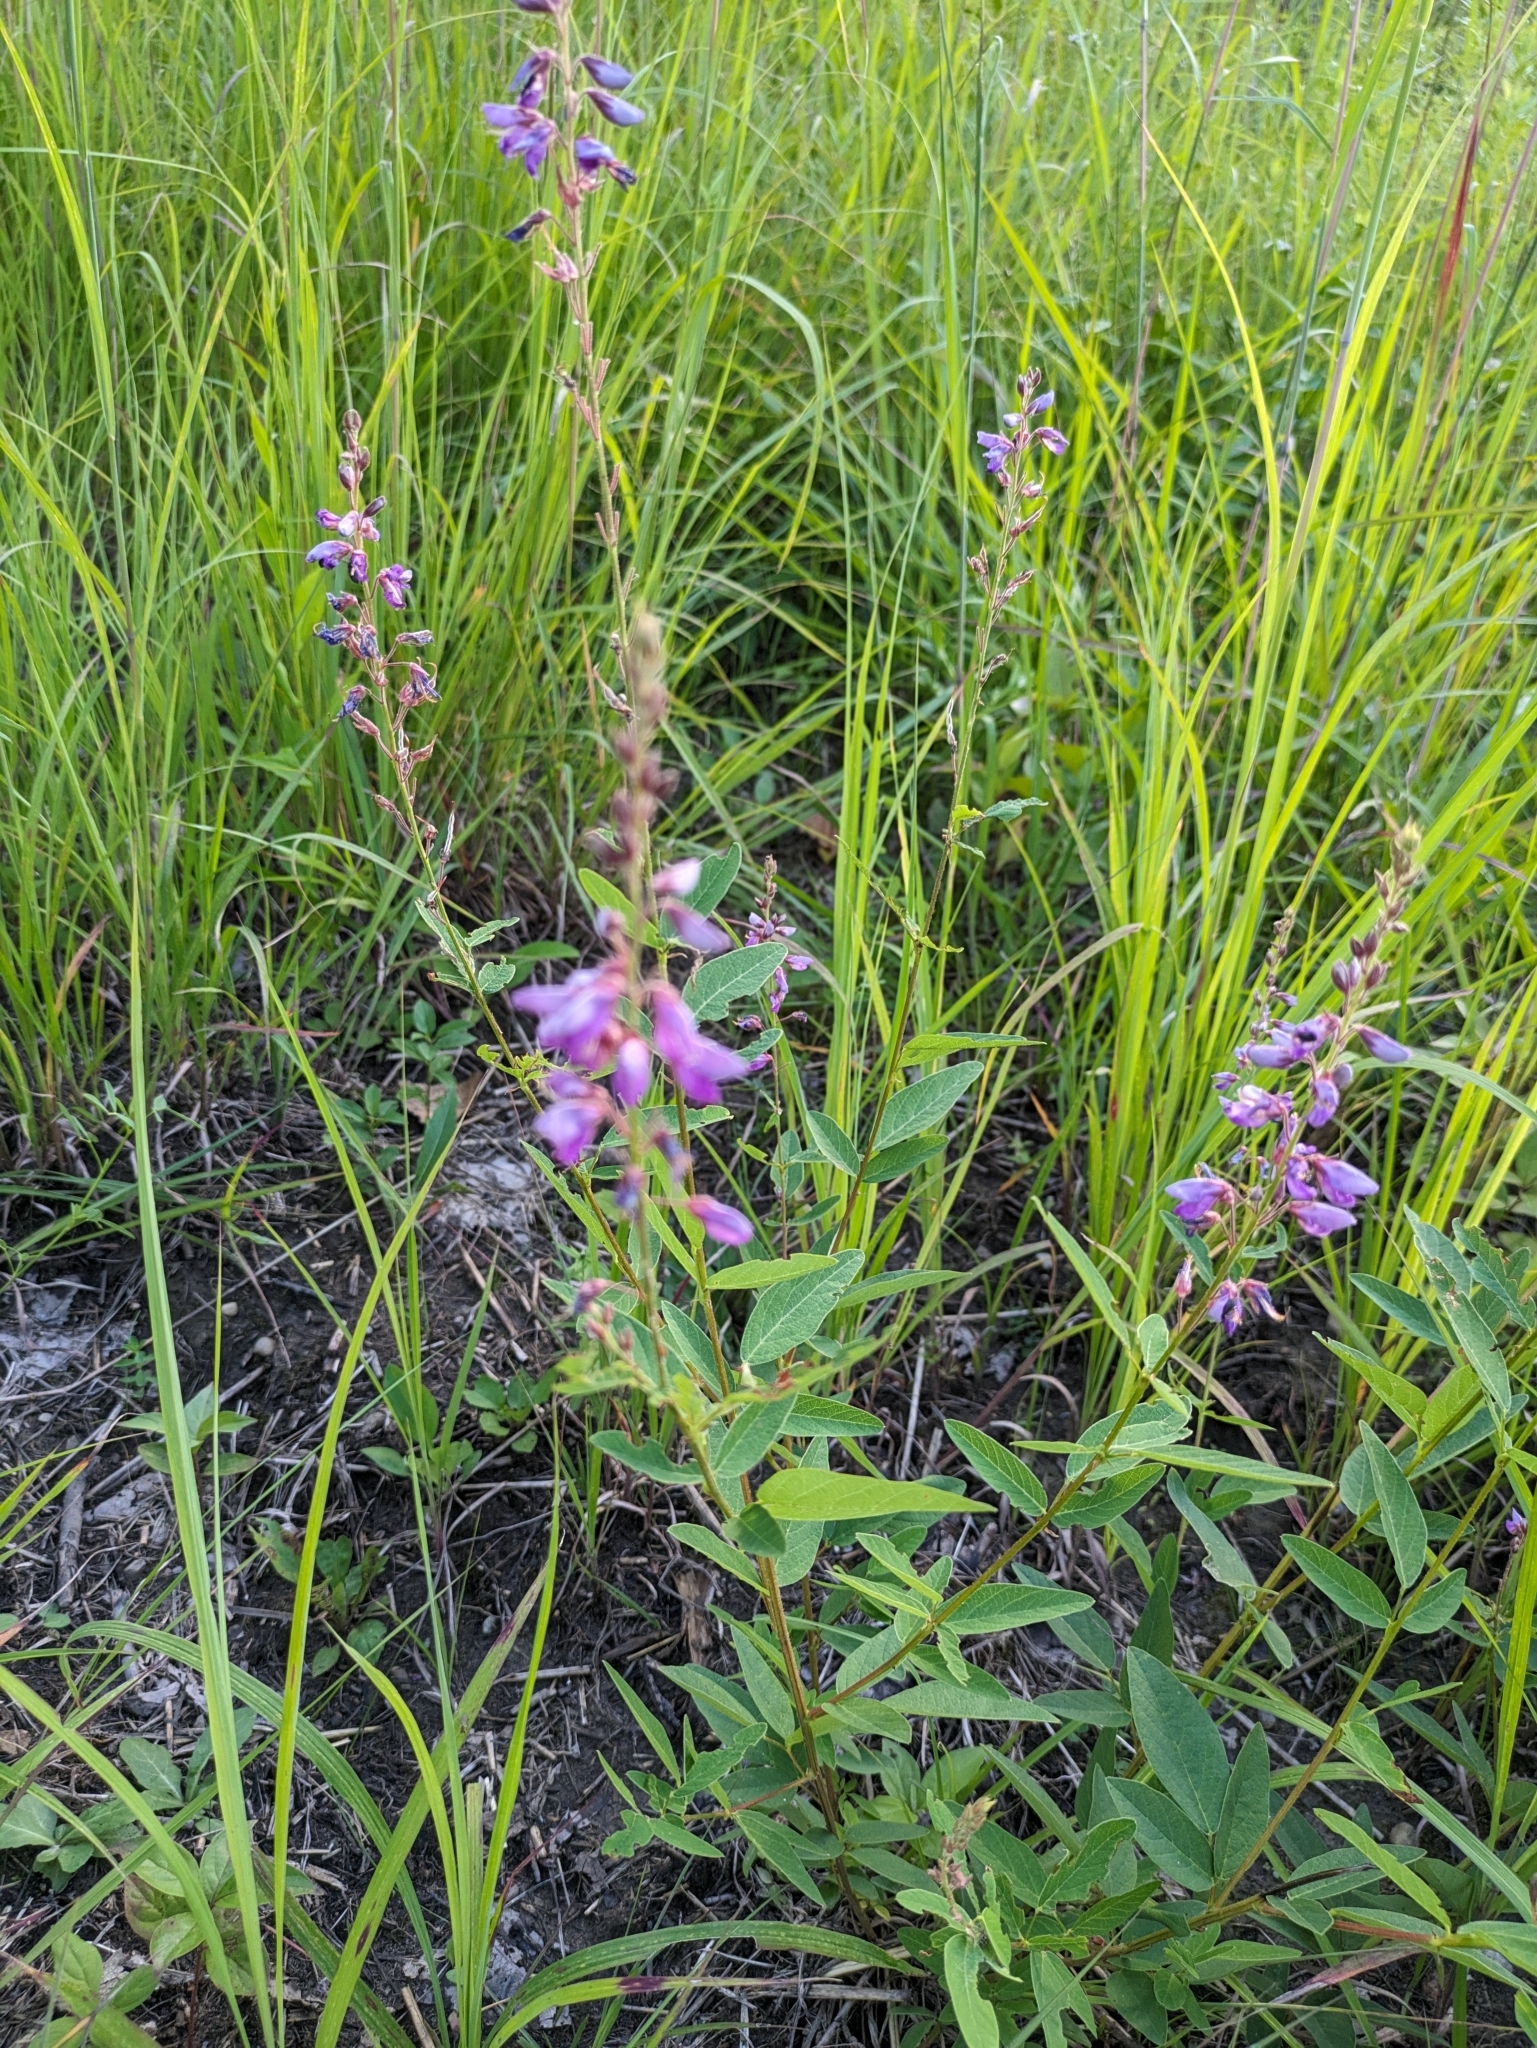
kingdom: Plantae
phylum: Tracheophyta
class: Magnoliopsida
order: Fabales
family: Fabaceae
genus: Desmodium
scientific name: Desmodium canadense
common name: Canada tick-trefoil
